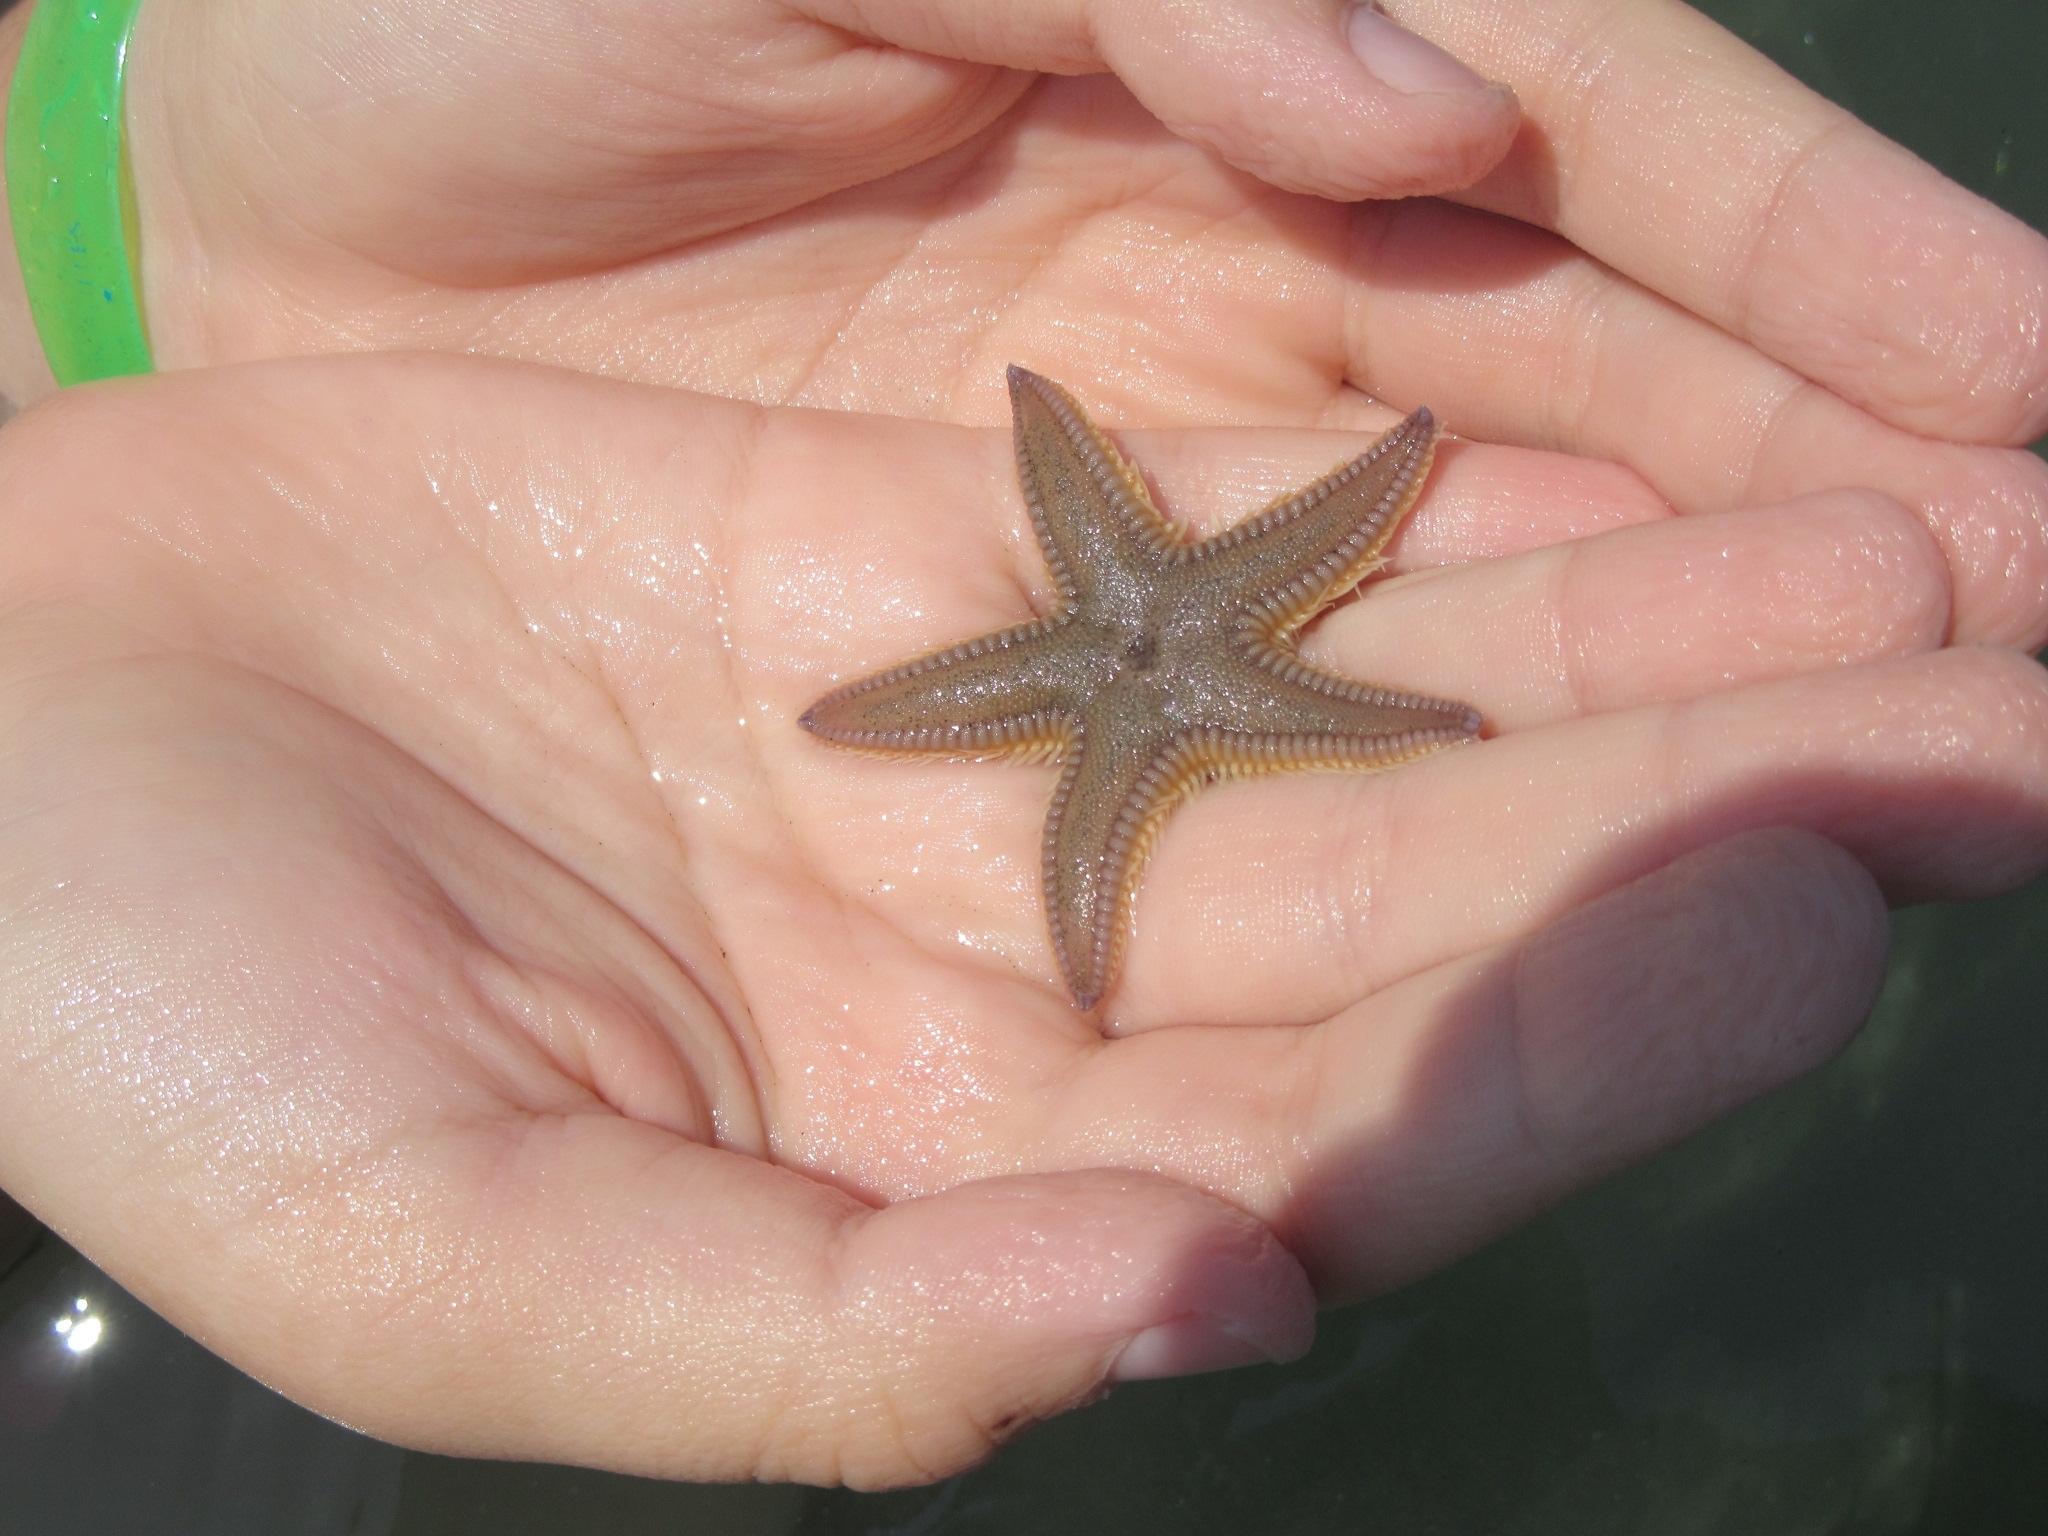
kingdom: Animalia
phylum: Echinodermata
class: Asteroidea
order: Paxillosida
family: Astropectinidae
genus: Astropecten
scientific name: Astropecten
